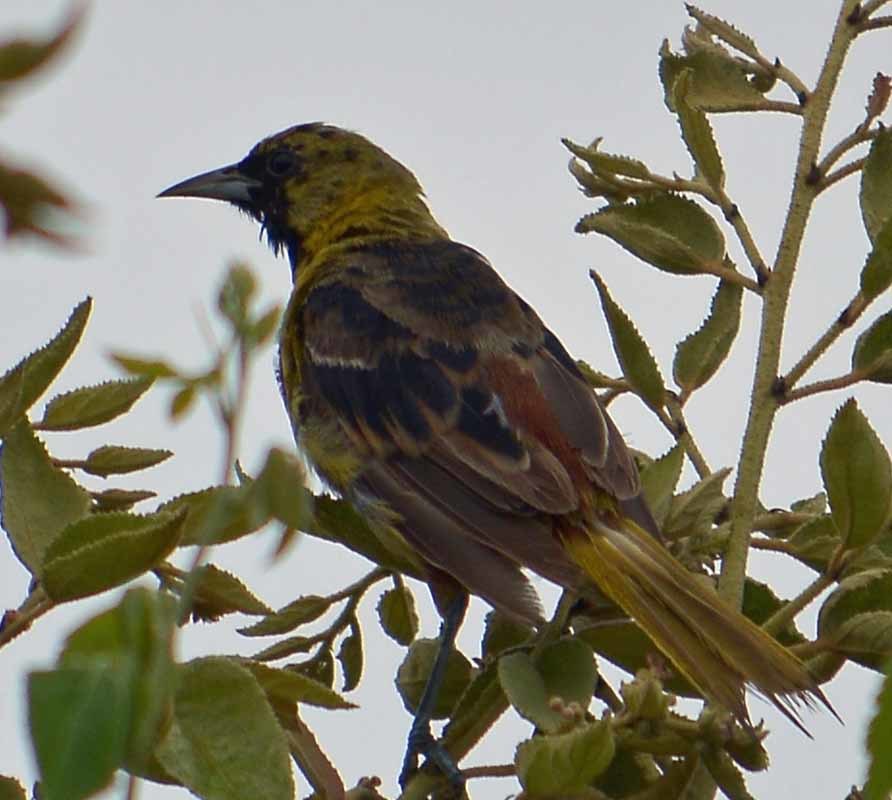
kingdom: Animalia
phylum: Chordata
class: Aves
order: Passeriformes
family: Icteridae
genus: Icterus
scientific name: Icterus spurius
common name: Orchard oriole
